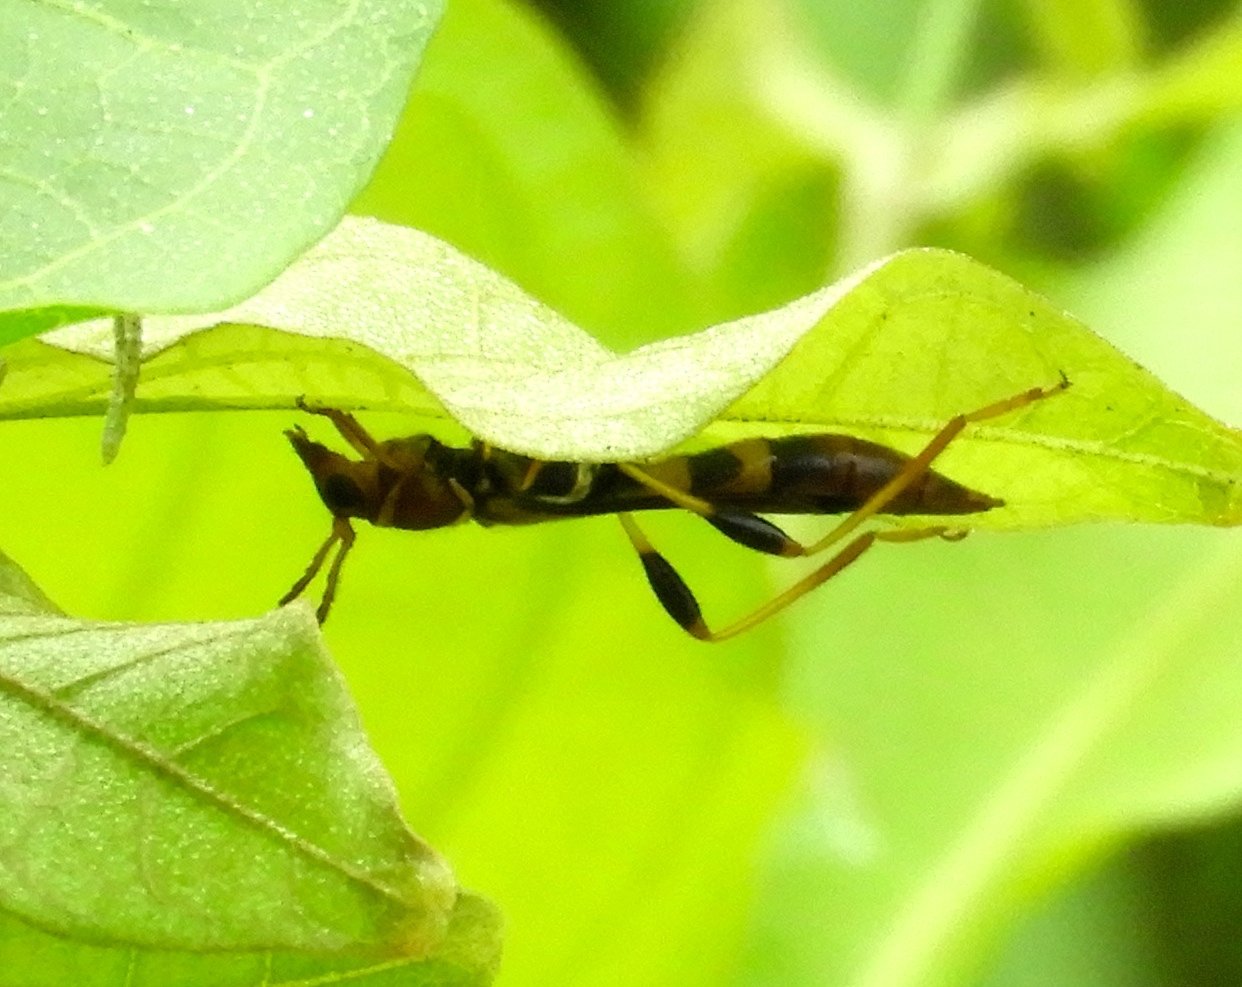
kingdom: Animalia
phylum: Arthropoda
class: Insecta
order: Coleoptera
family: Cerambycidae
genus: Odontocera
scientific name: Odontocera aurocincta
